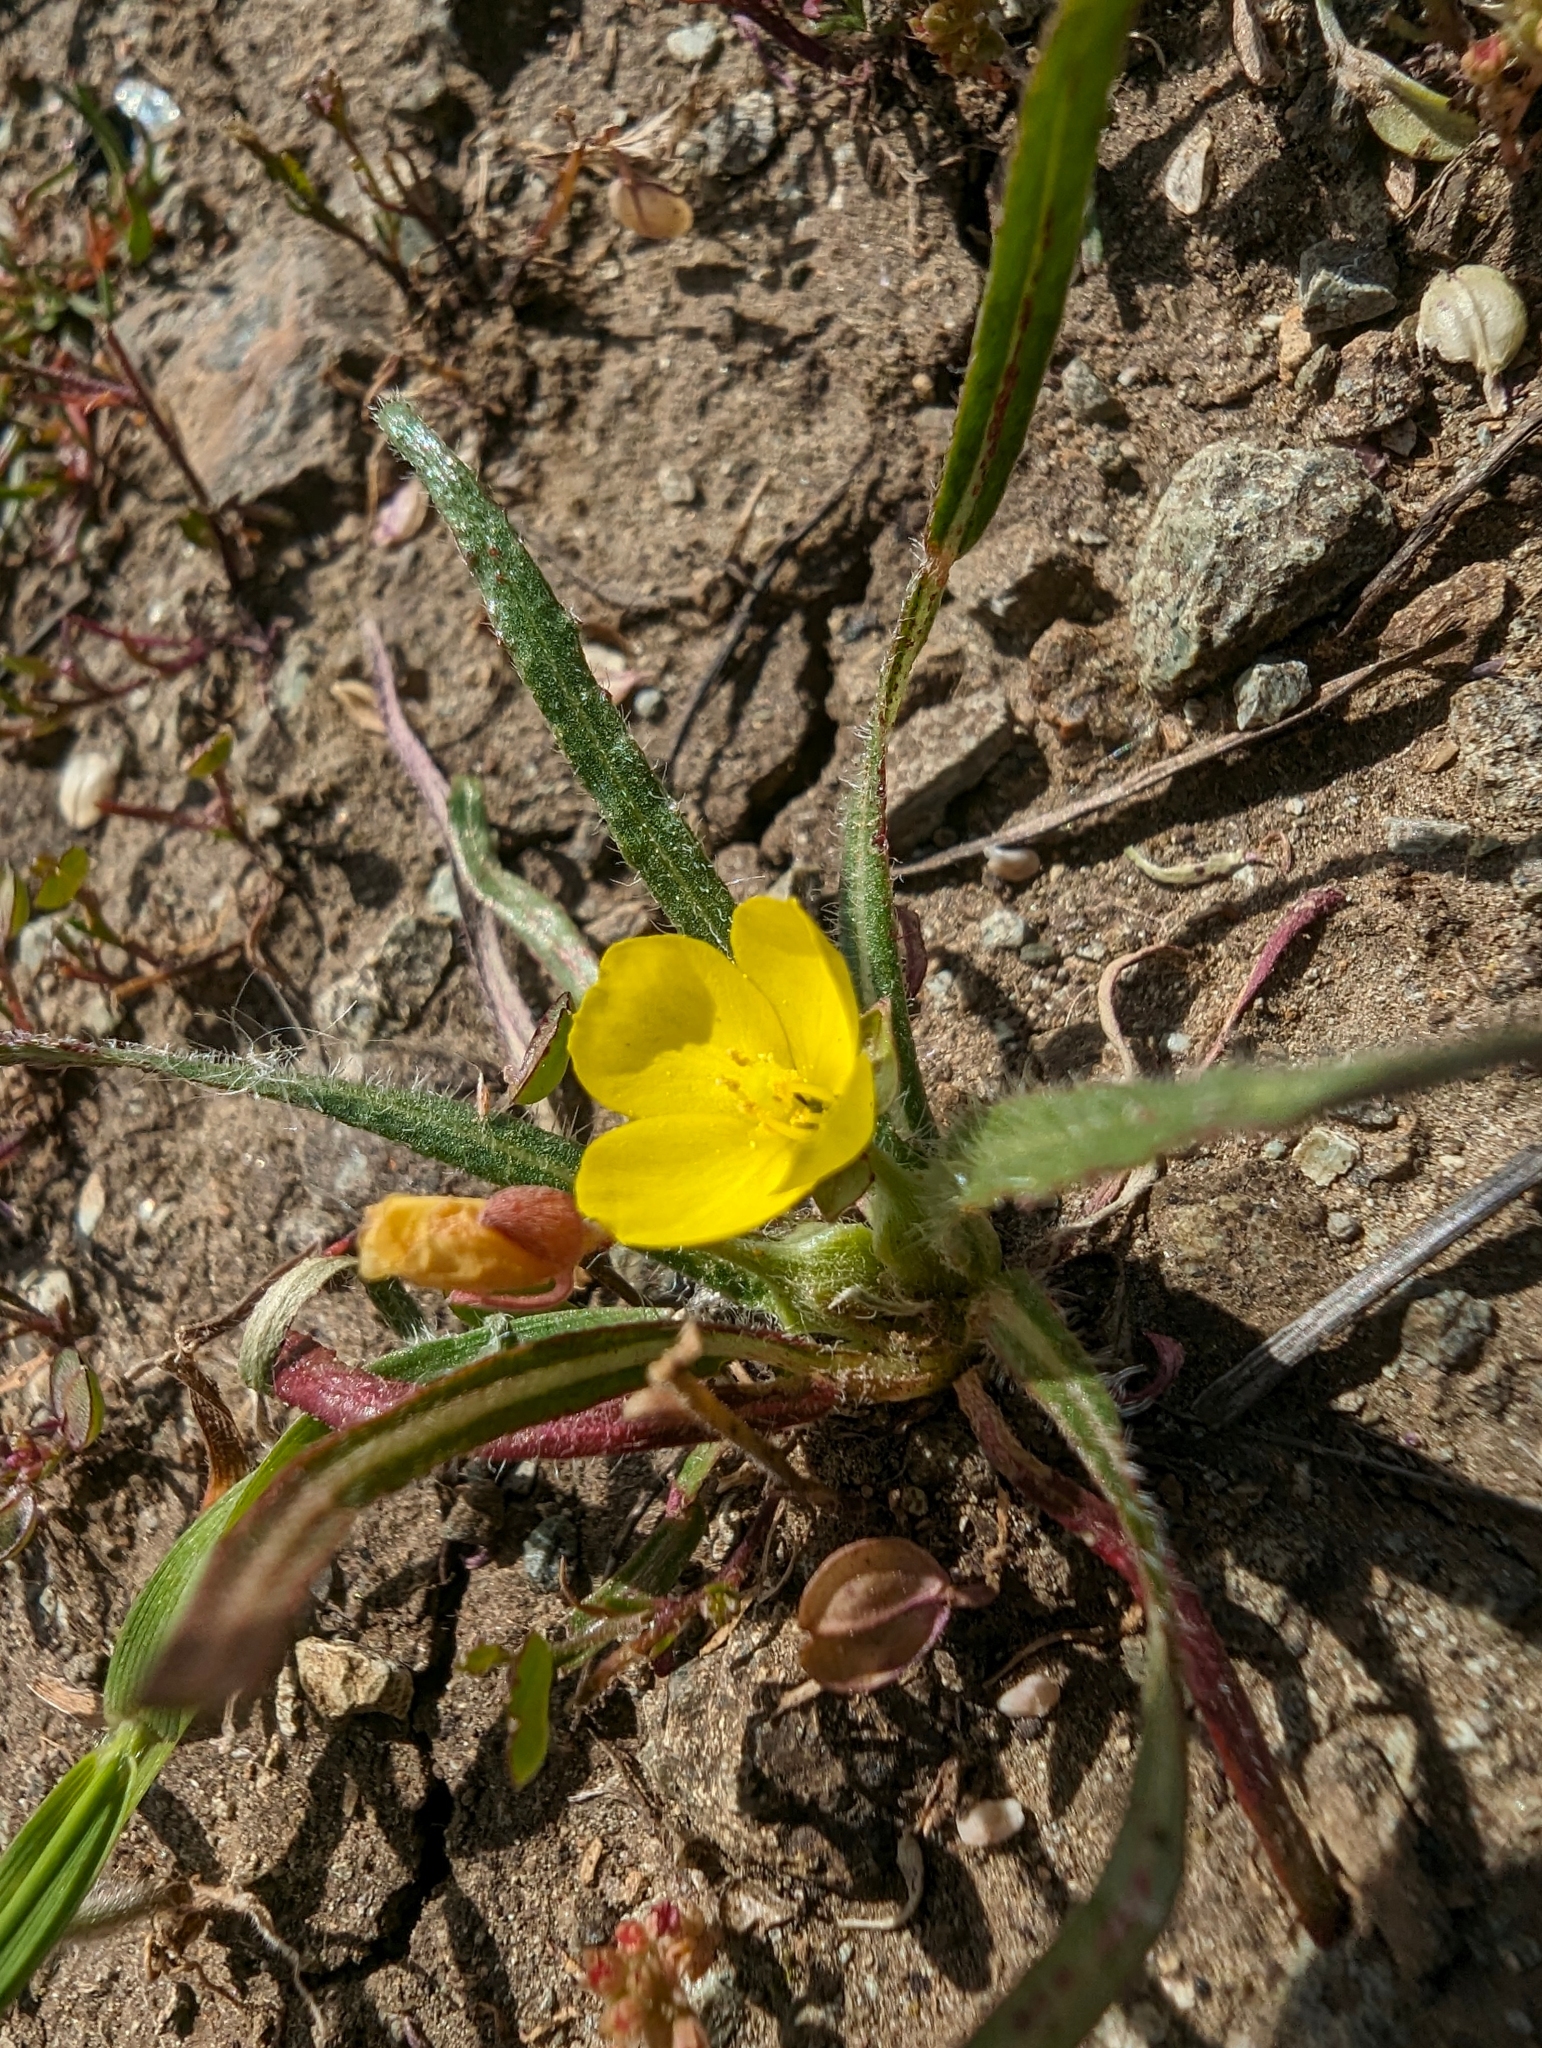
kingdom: Plantae
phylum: Tracheophyta
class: Magnoliopsida
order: Myrtales
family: Onagraceae
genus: Tetrapteron
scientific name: Tetrapteron graciliflorum
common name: Hill suncup
